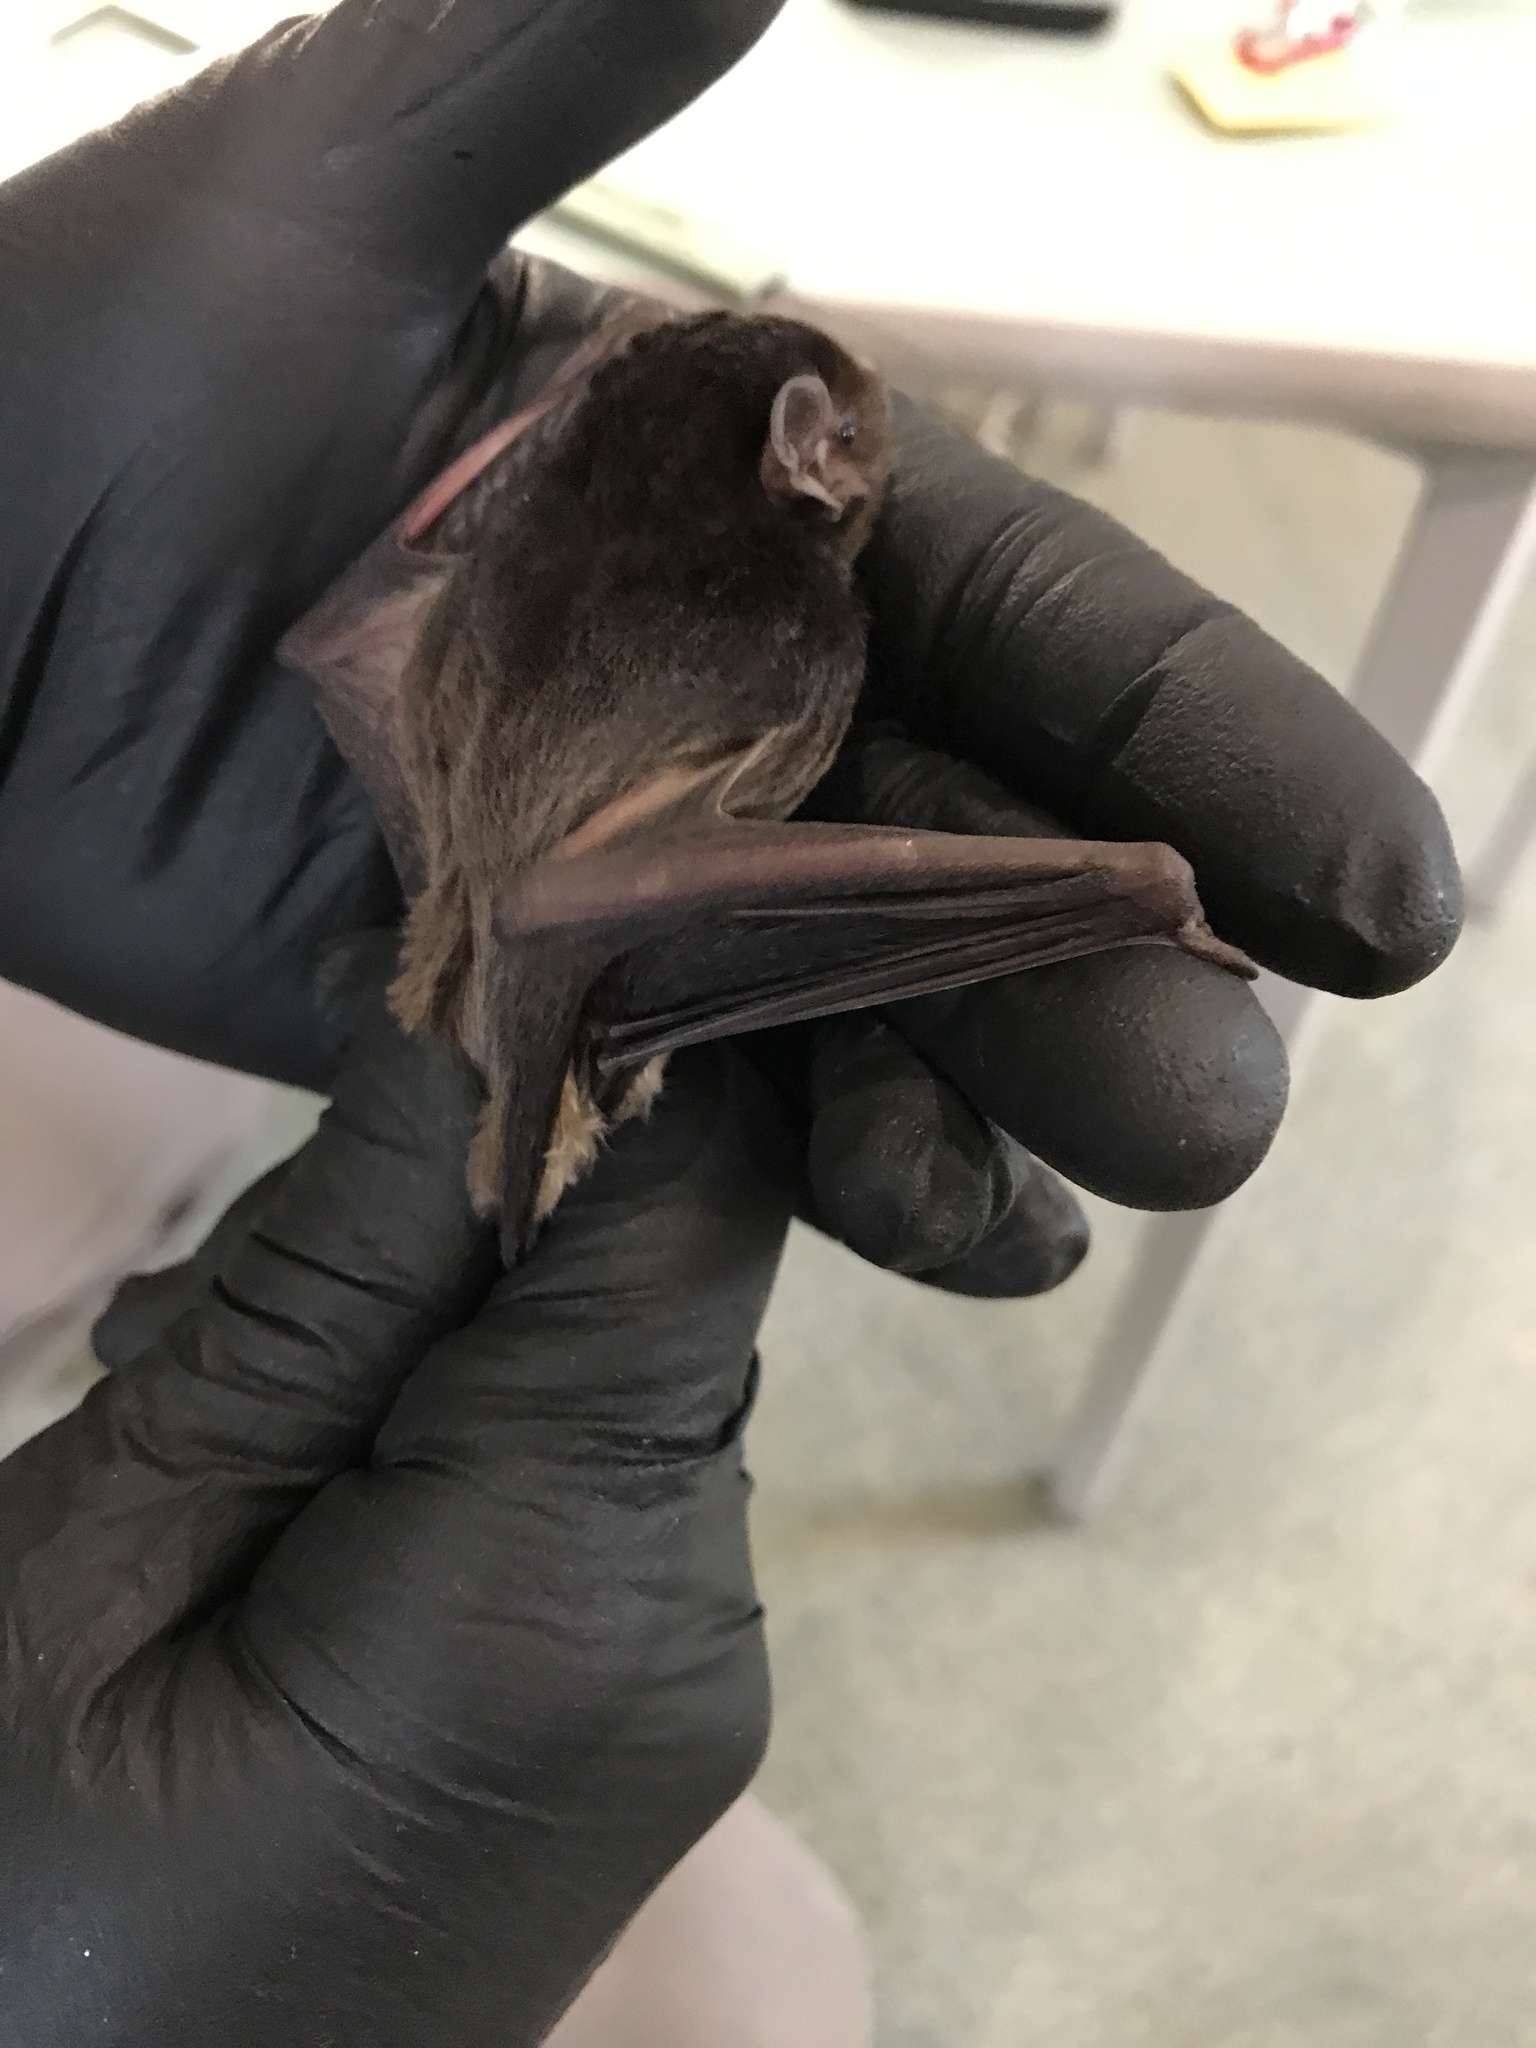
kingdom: Animalia
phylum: Chordata
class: Mammalia
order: Chiroptera
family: Vespertilionidae
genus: Chalinolobus
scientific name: Chalinolobus gouldii
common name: Gould's wattled bat
